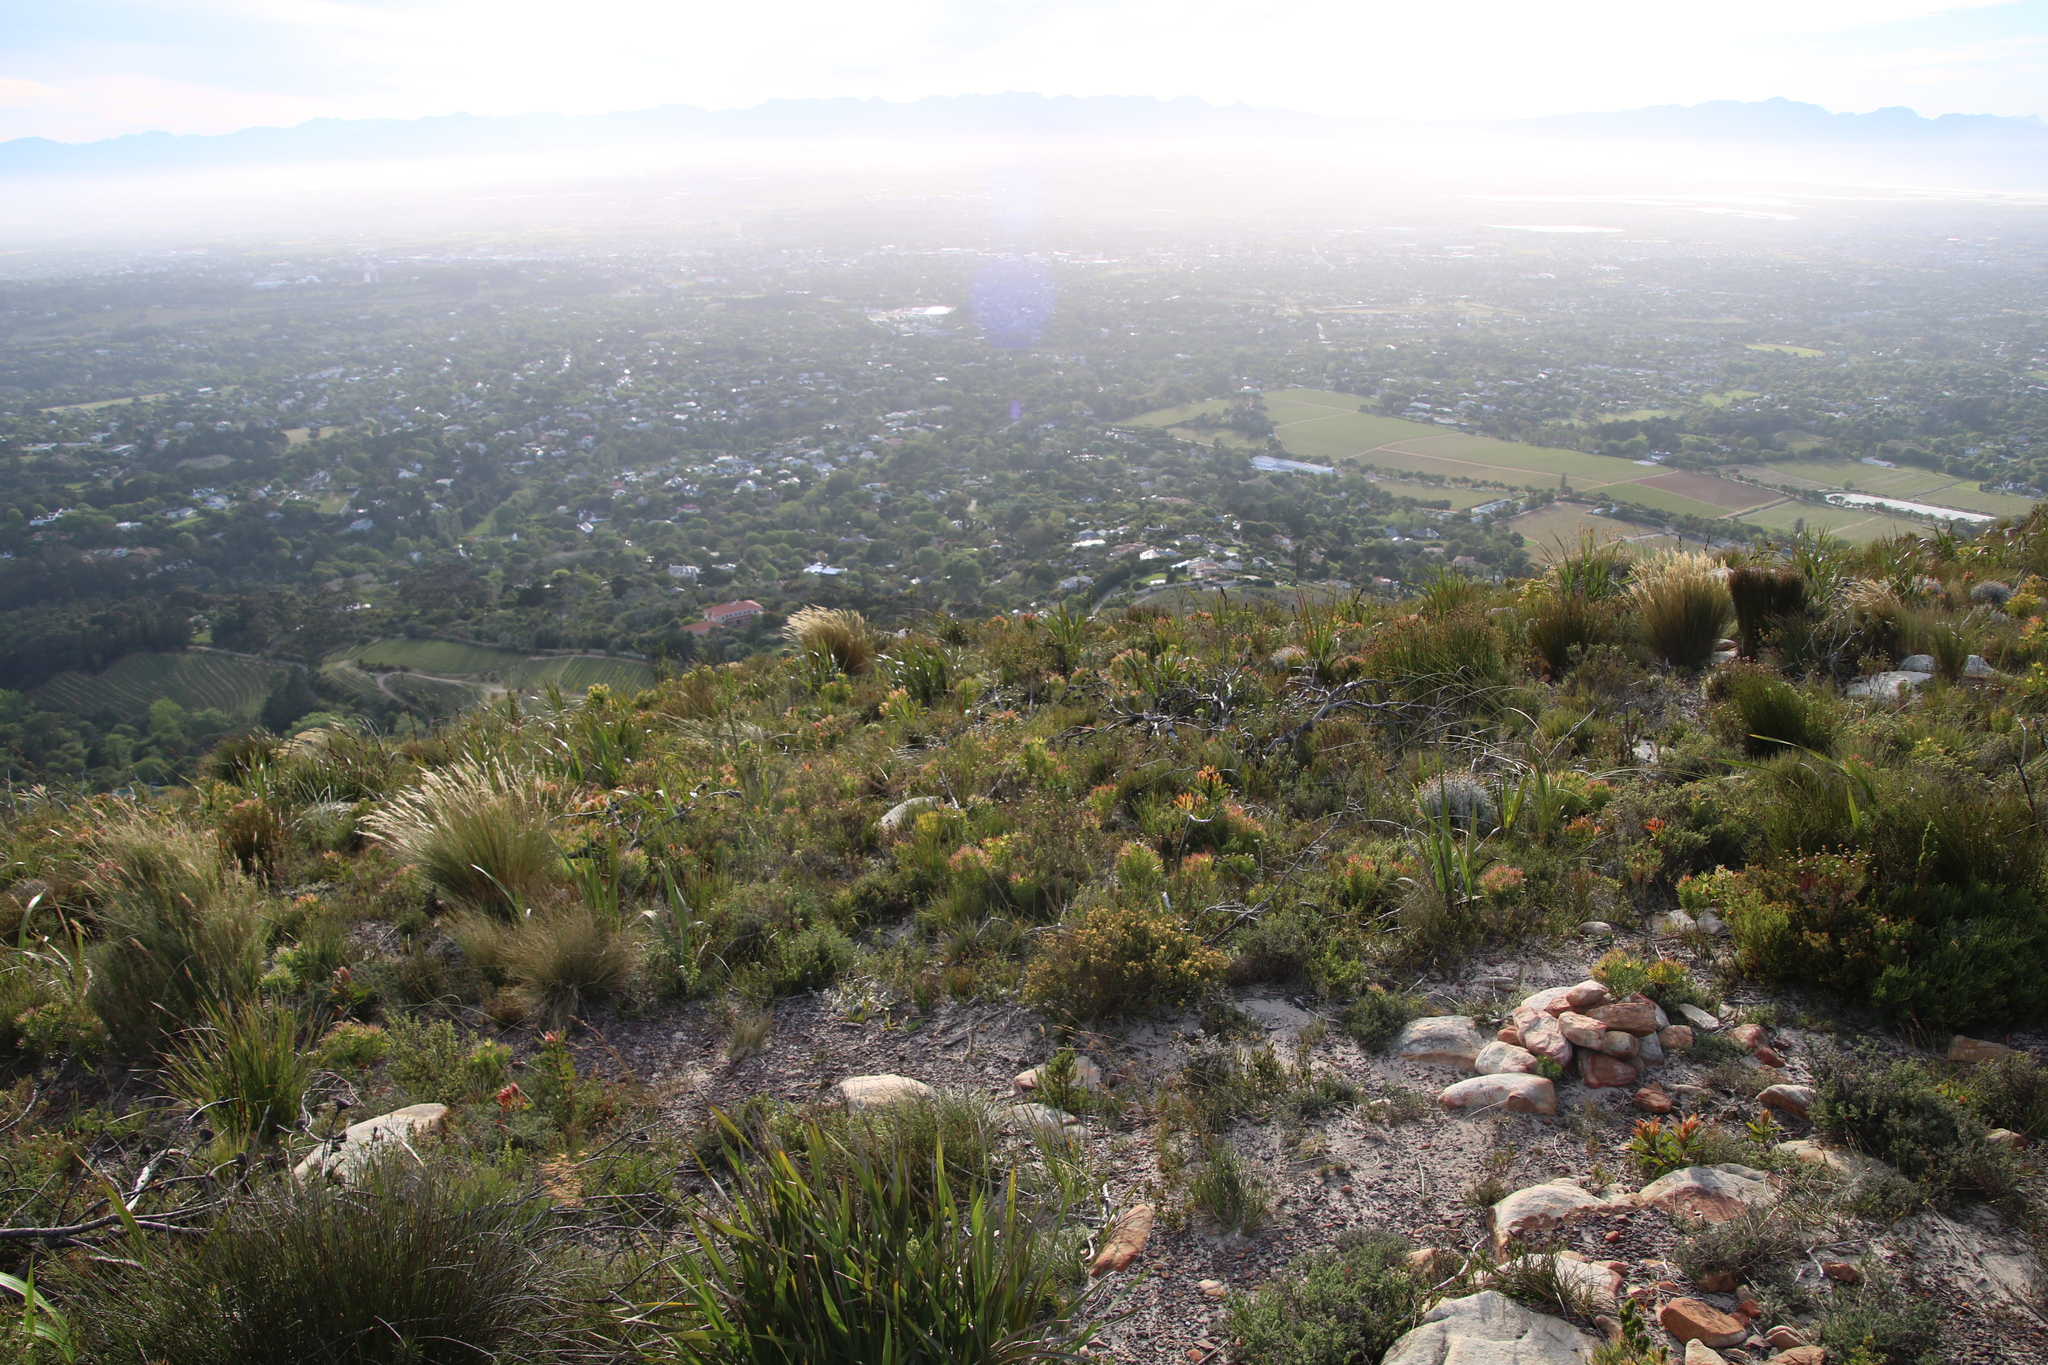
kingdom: Plantae
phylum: Tracheophyta
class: Magnoliopsida
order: Proteales
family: Proteaceae
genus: Protea
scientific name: Protea lepidocarpodendron
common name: Black-bearded protea
